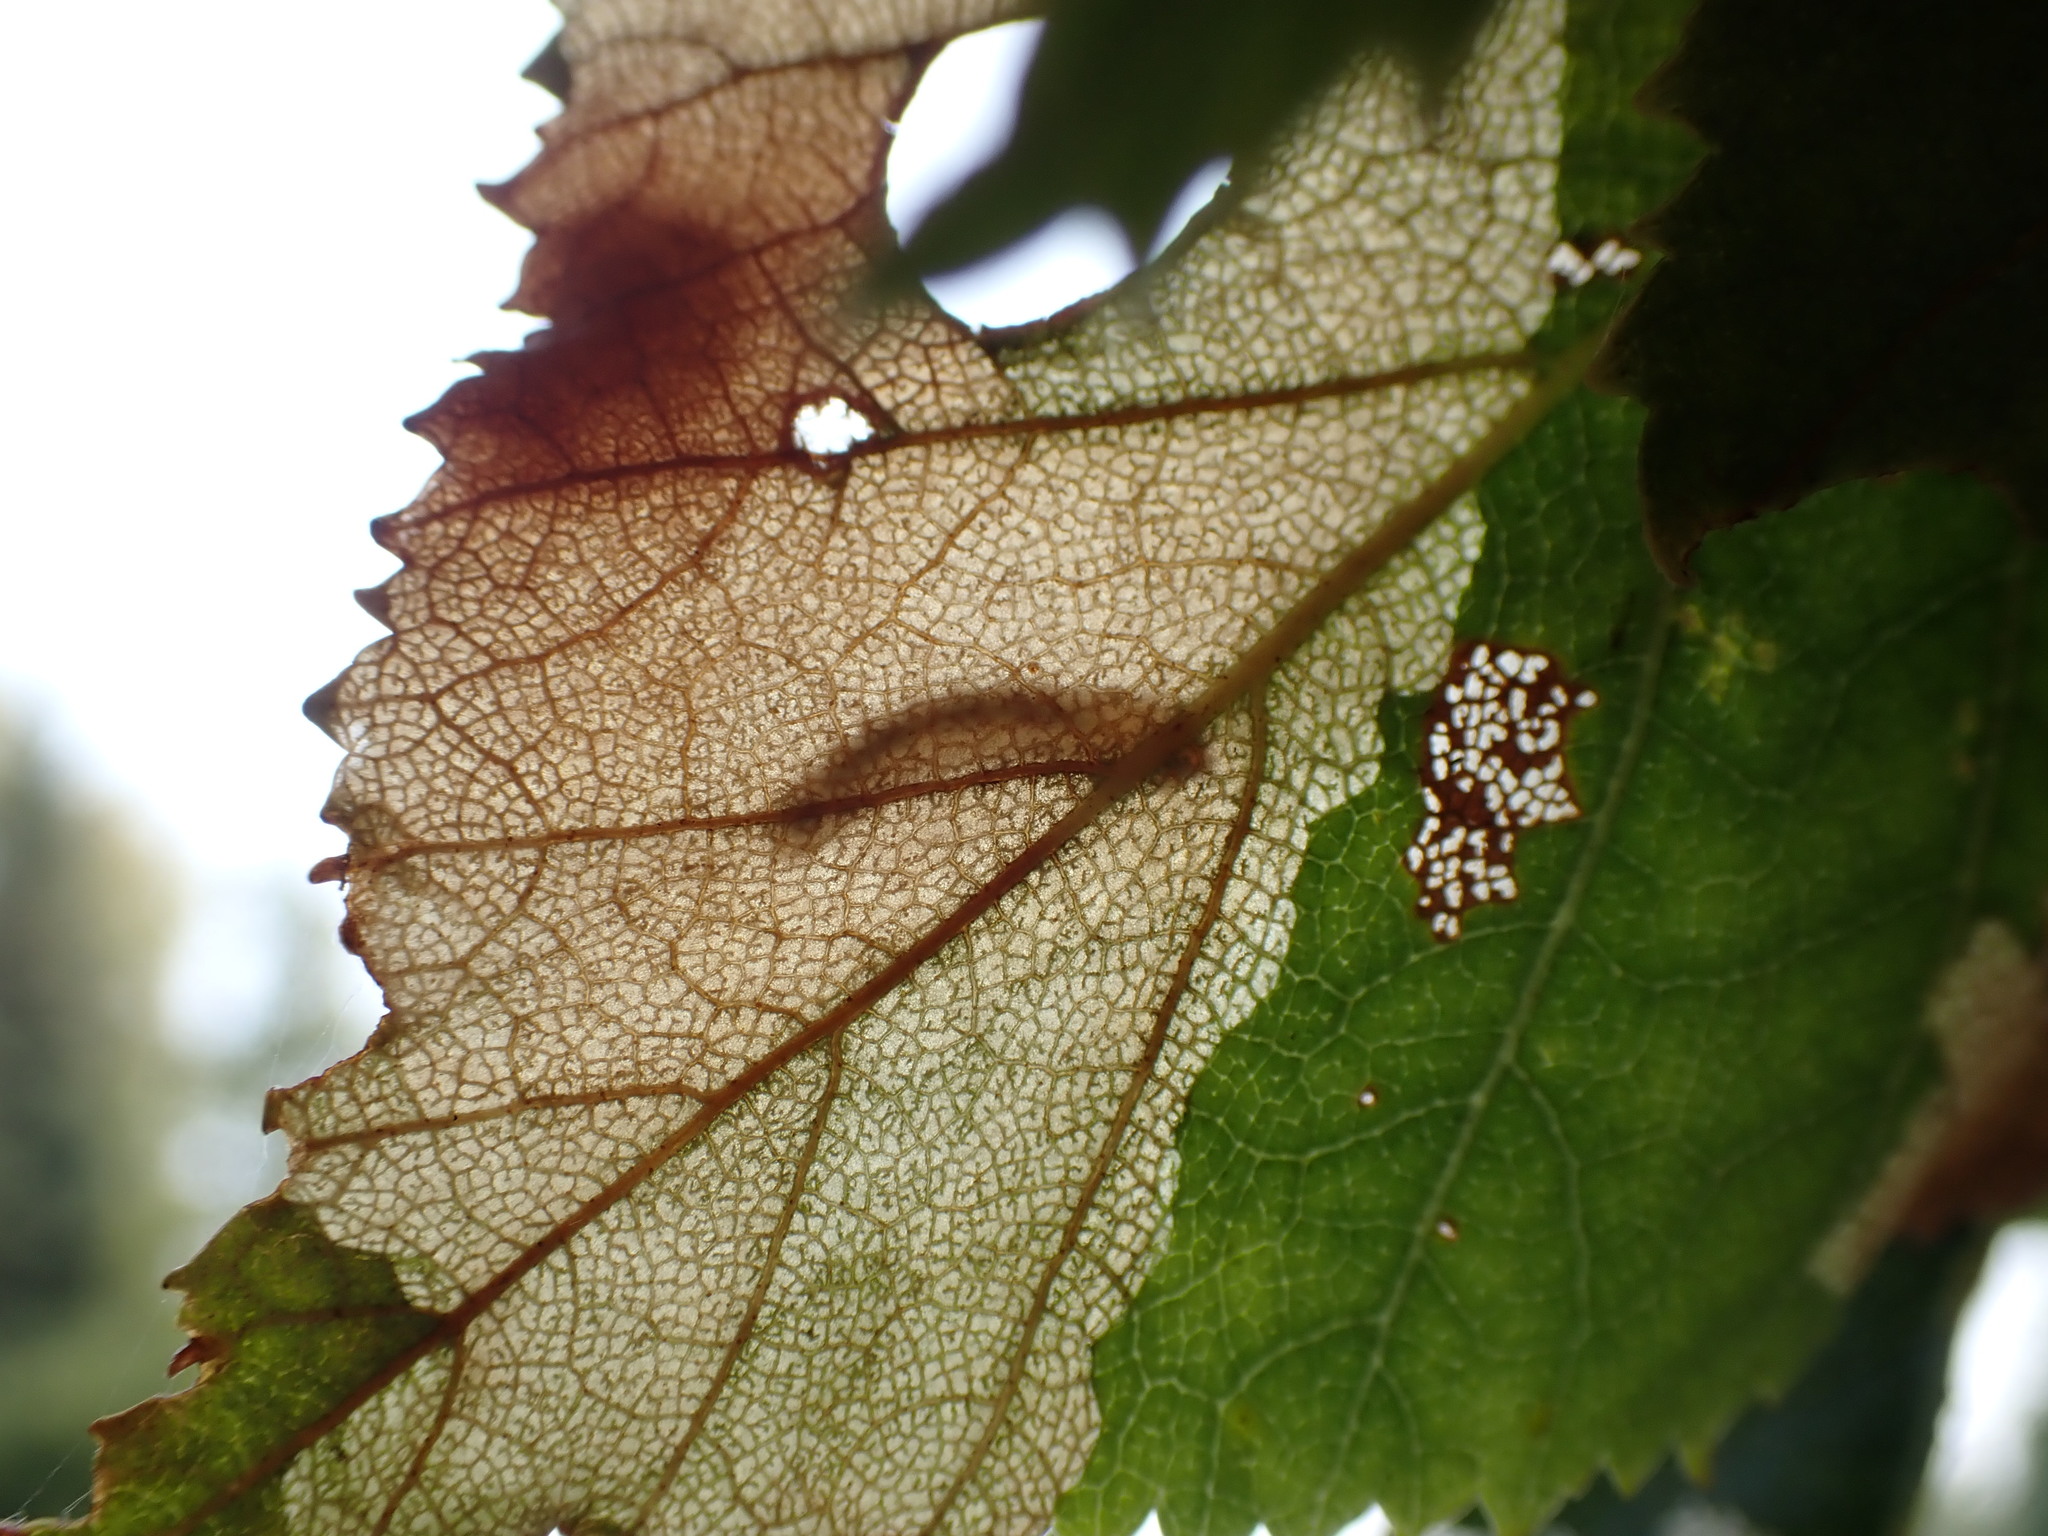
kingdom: Animalia
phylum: Arthropoda
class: Insecta
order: Hymenoptera
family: Tenthredinidae
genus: Heterarthrus
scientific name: Heterarthrus nemoratus
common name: Late birch leaf edgeminer
